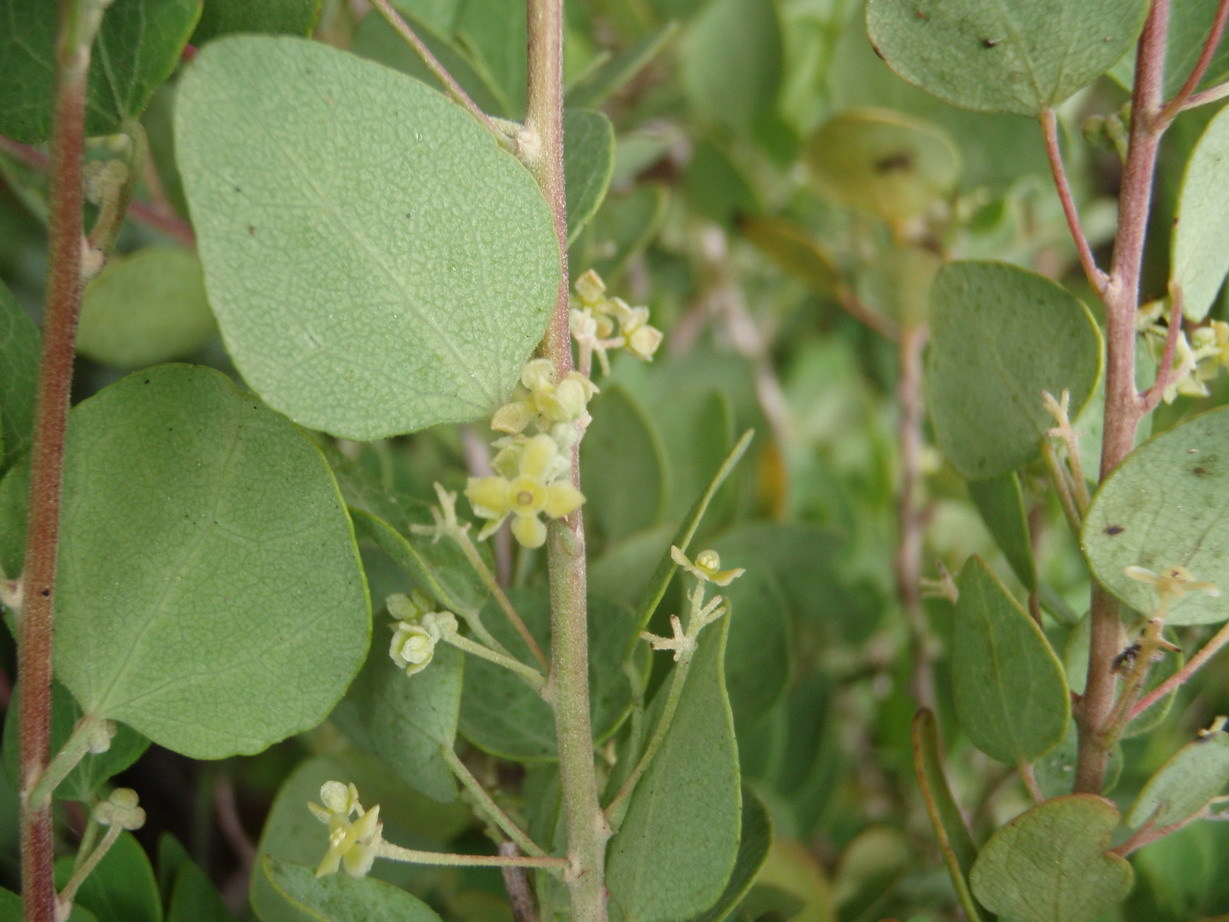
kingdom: Plantae
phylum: Tracheophyta
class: Magnoliopsida
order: Ranunculales
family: Menispermaceae
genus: Cissampelos
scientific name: Cissampelos capensis
